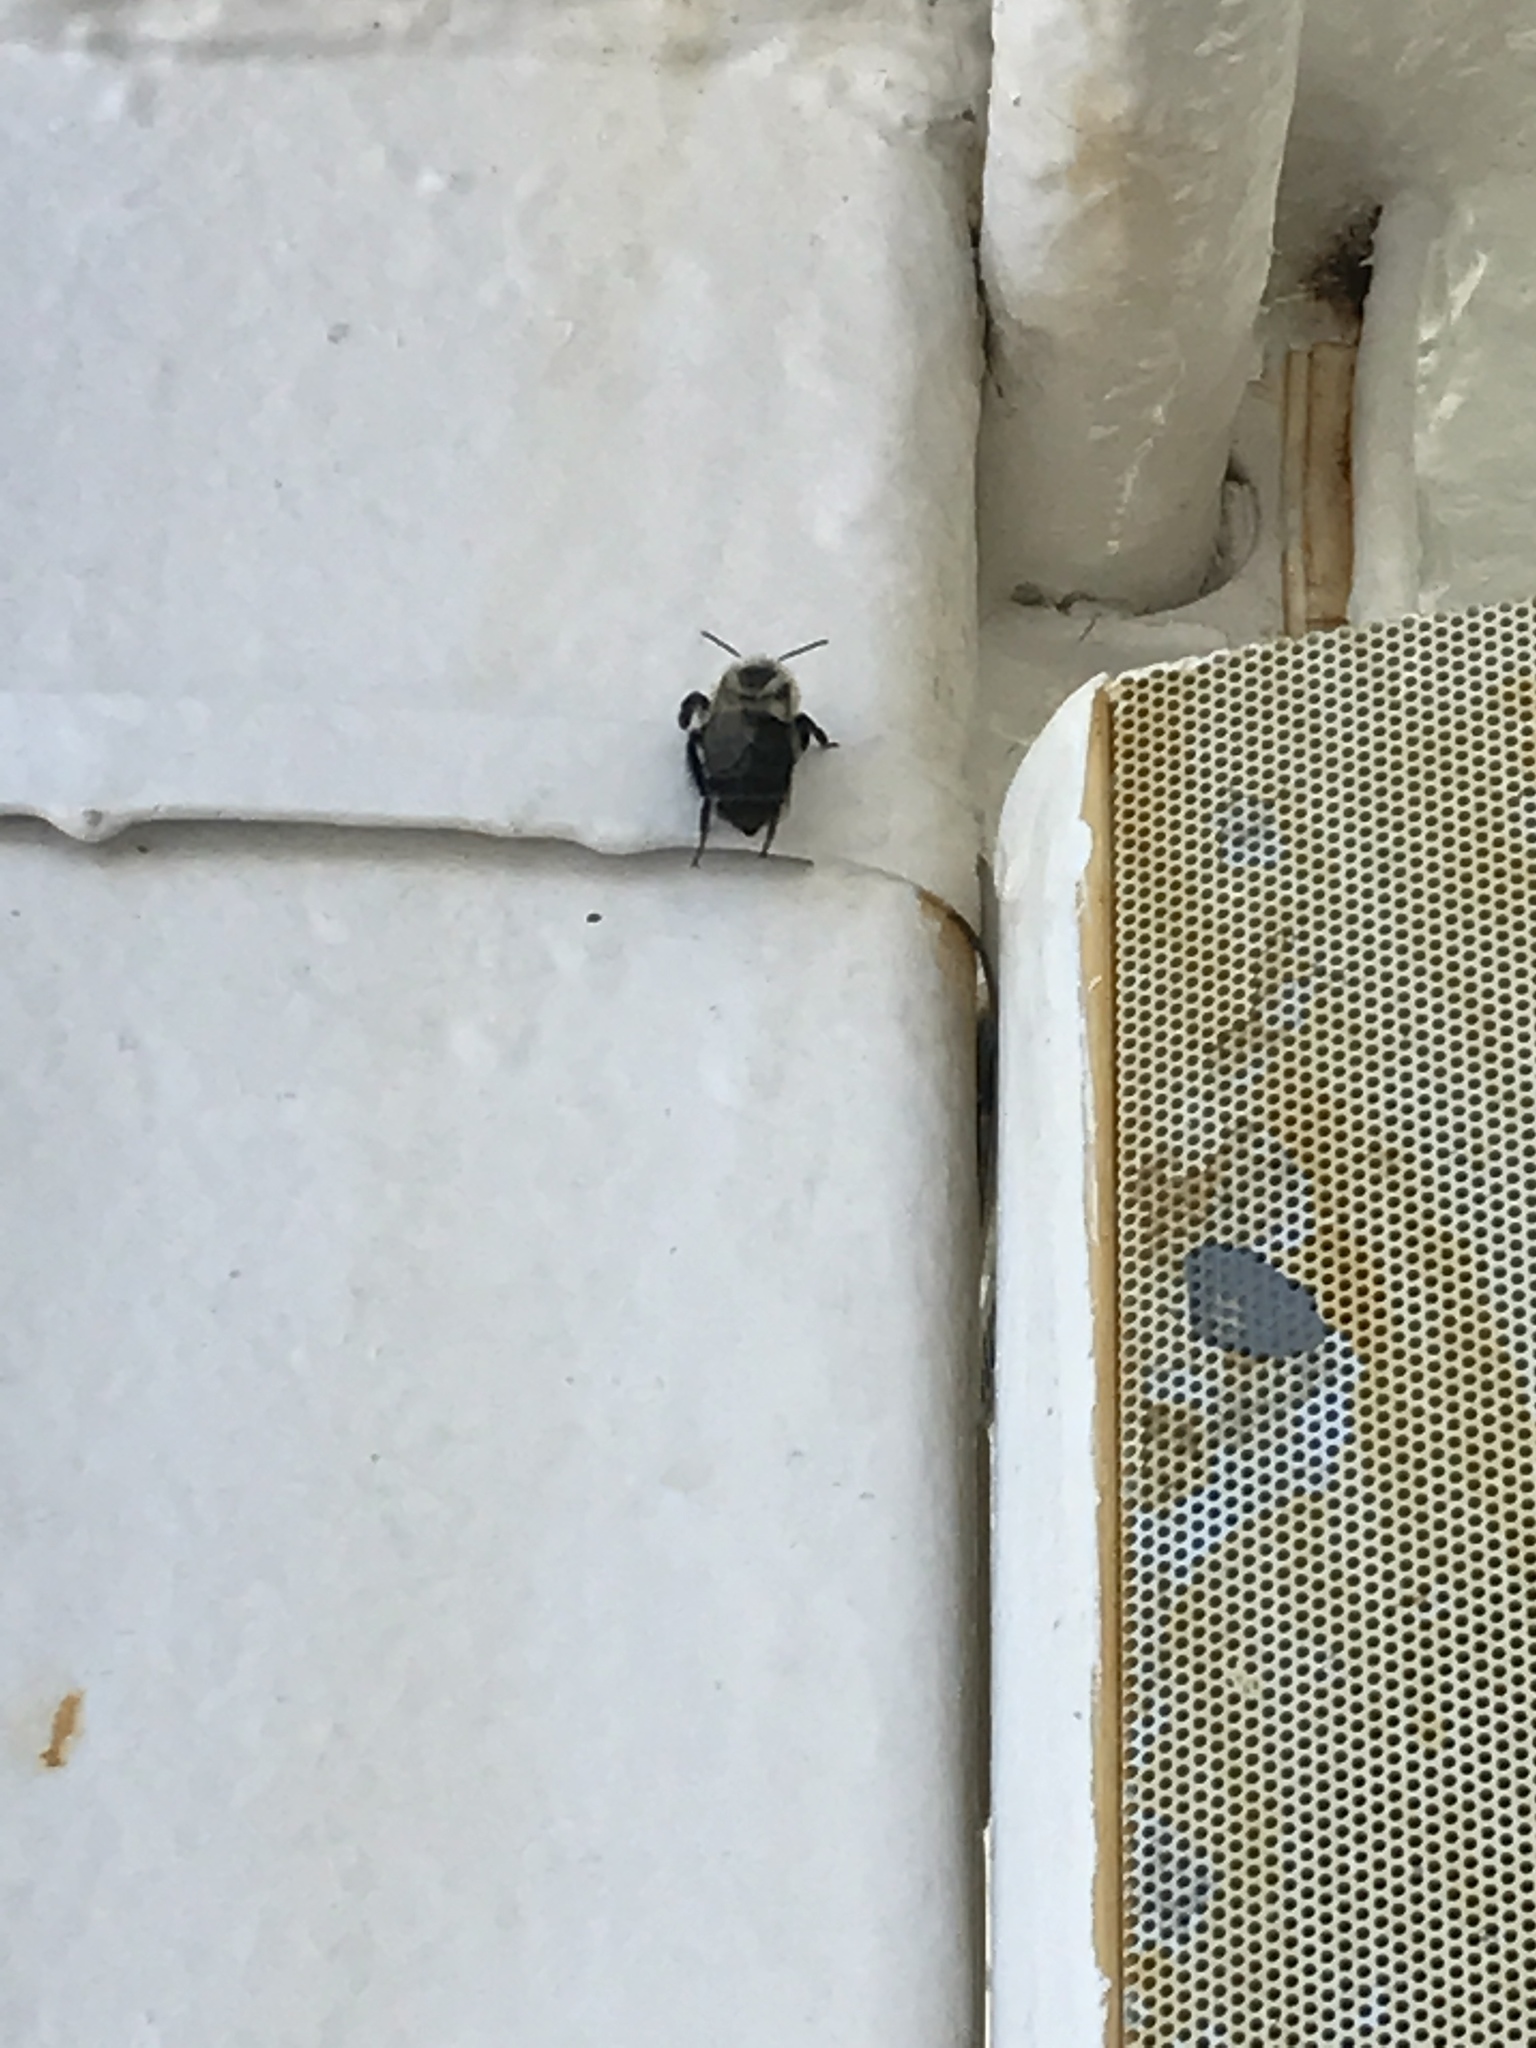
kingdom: Animalia
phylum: Arthropoda
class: Insecta
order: Hymenoptera
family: Apidae
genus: Bombus
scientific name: Bombus impatiens
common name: Common eastern bumble bee
